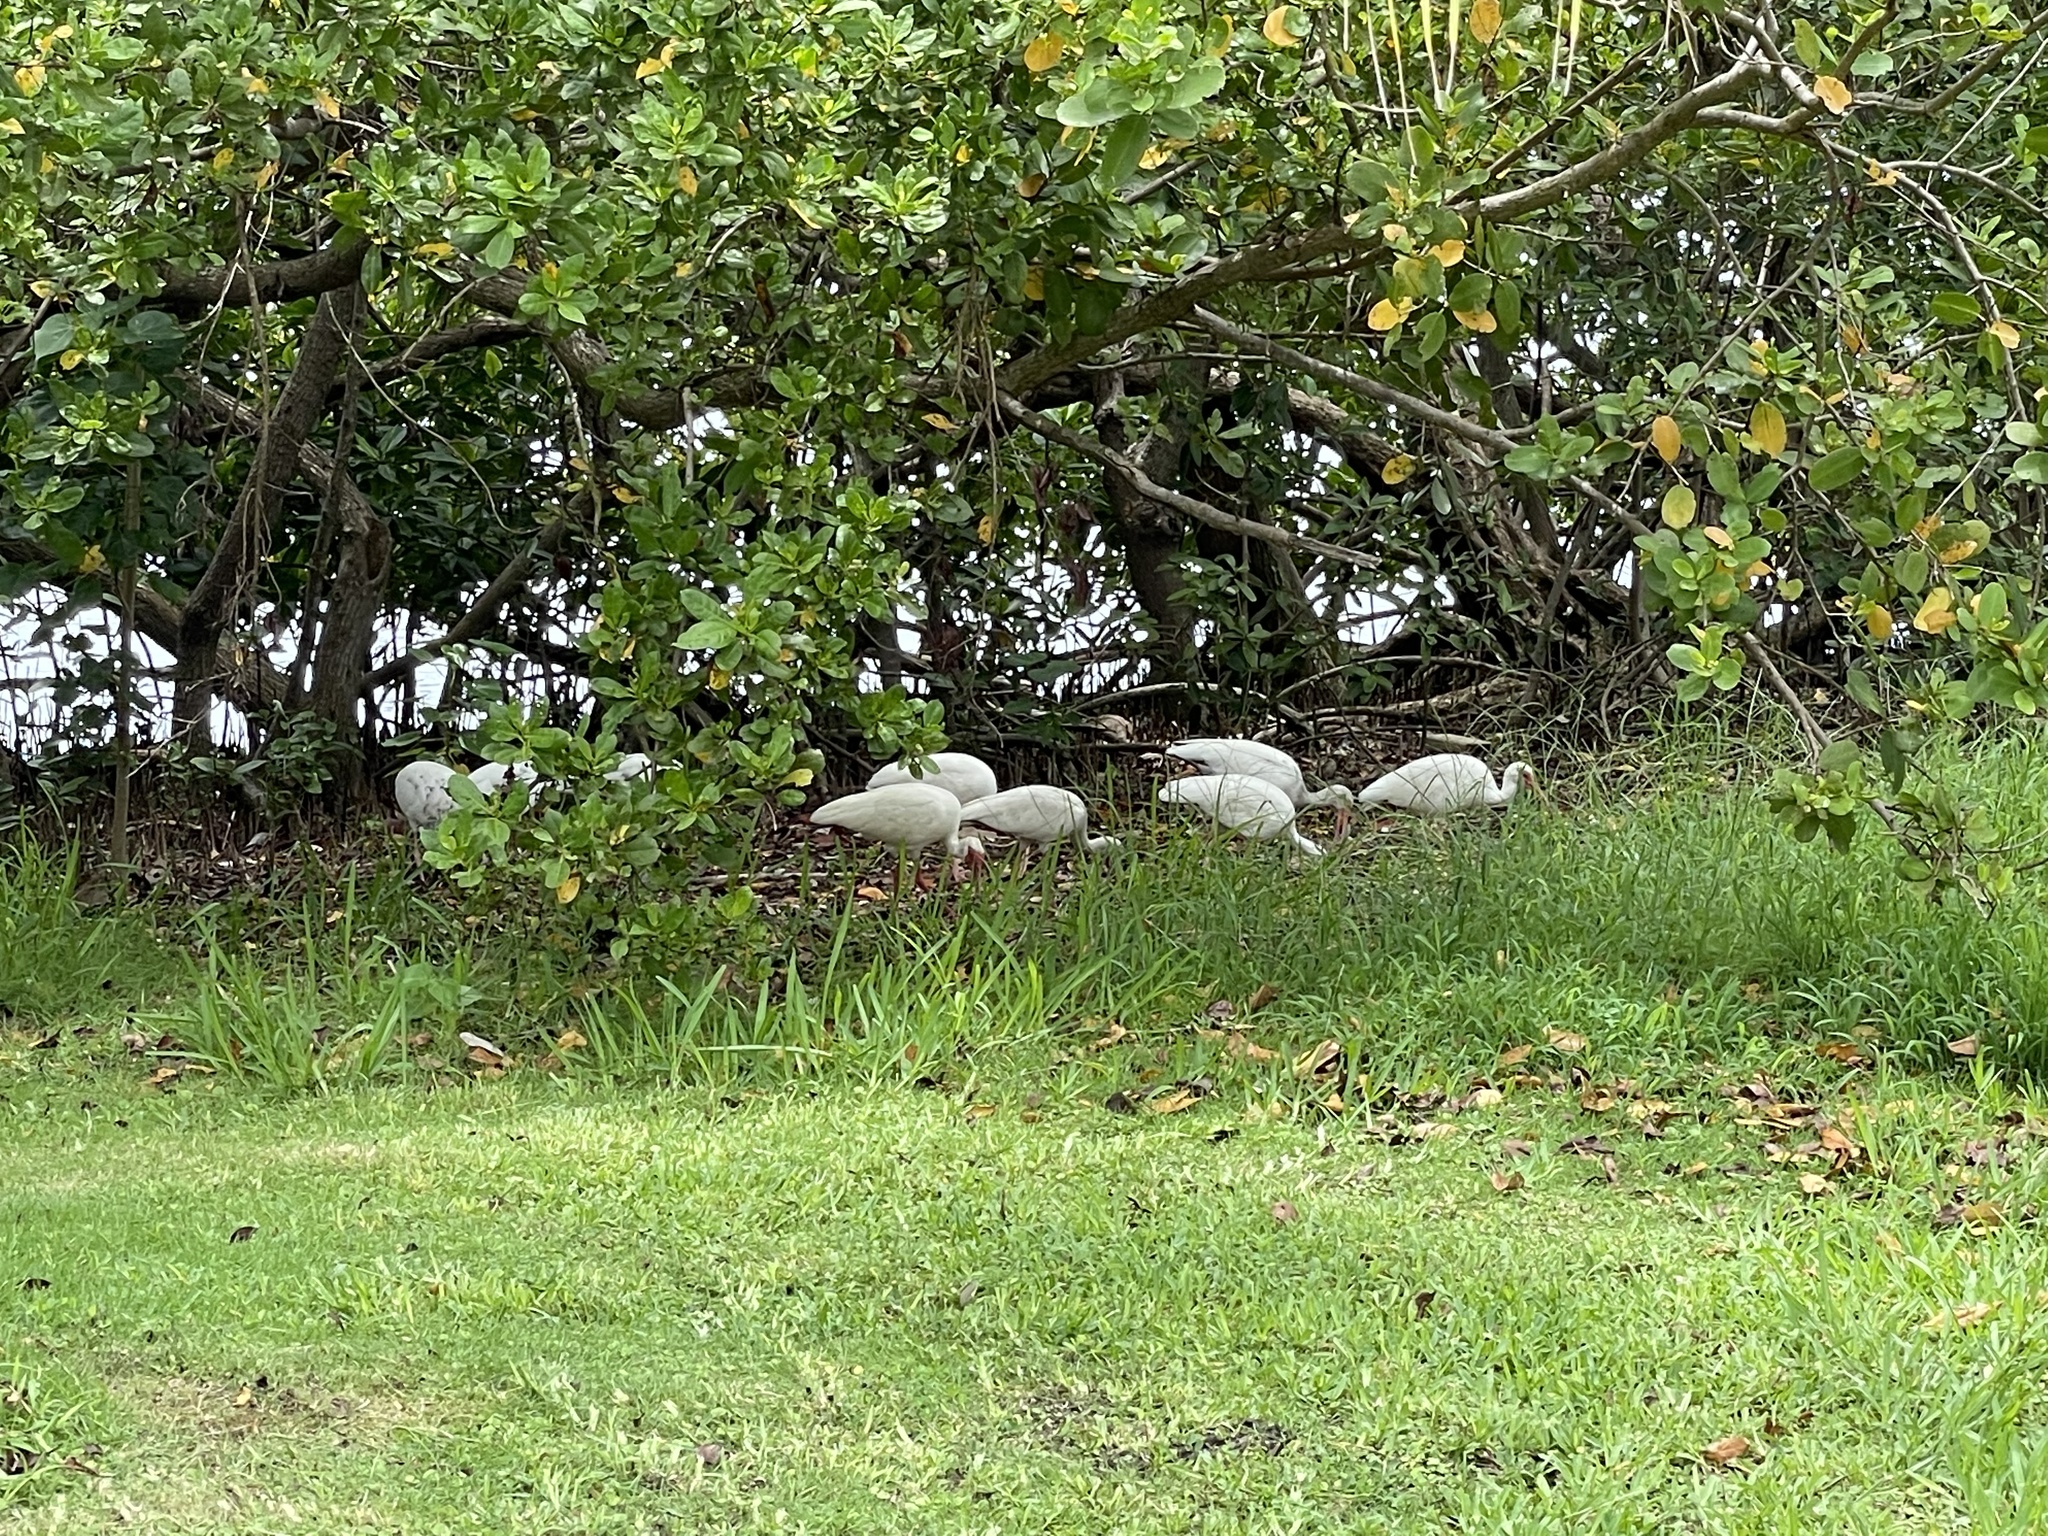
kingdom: Animalia
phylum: Chordata
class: Aves
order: Pelecaniformes
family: Threskiornithidae
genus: Eudocimus
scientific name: Eudocimus albus
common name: White ibis
